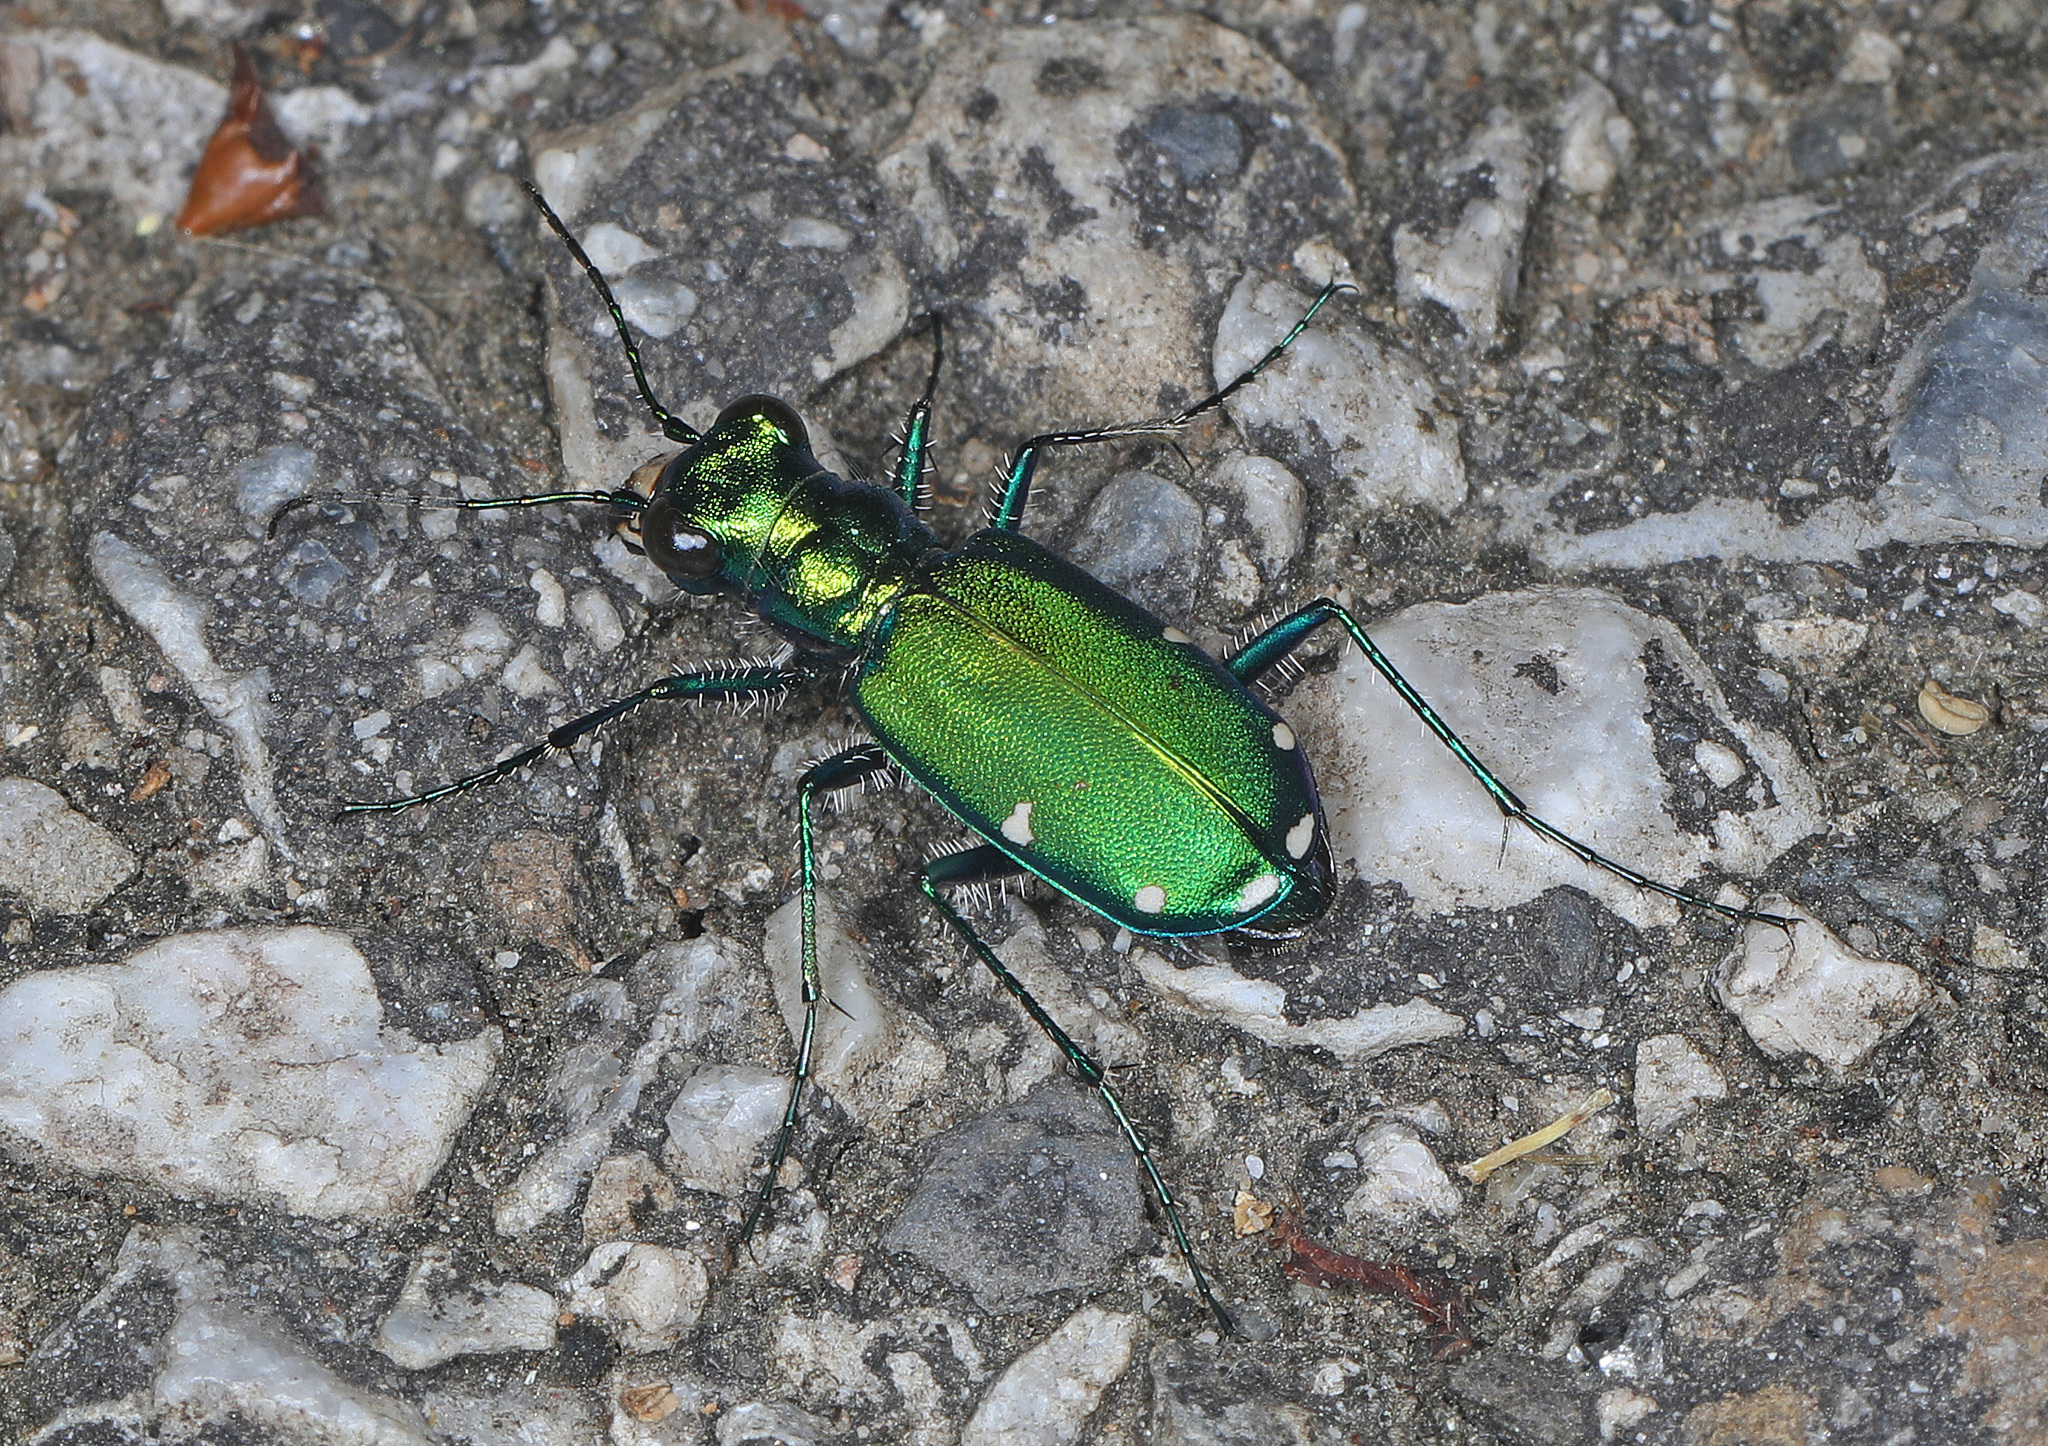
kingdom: Animalia
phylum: Arthropoda
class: Insecta
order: Coleoptera
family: Carabidae
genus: Cicindela
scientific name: Cicindela sexguttata
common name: Six-spotted tiger beetle
